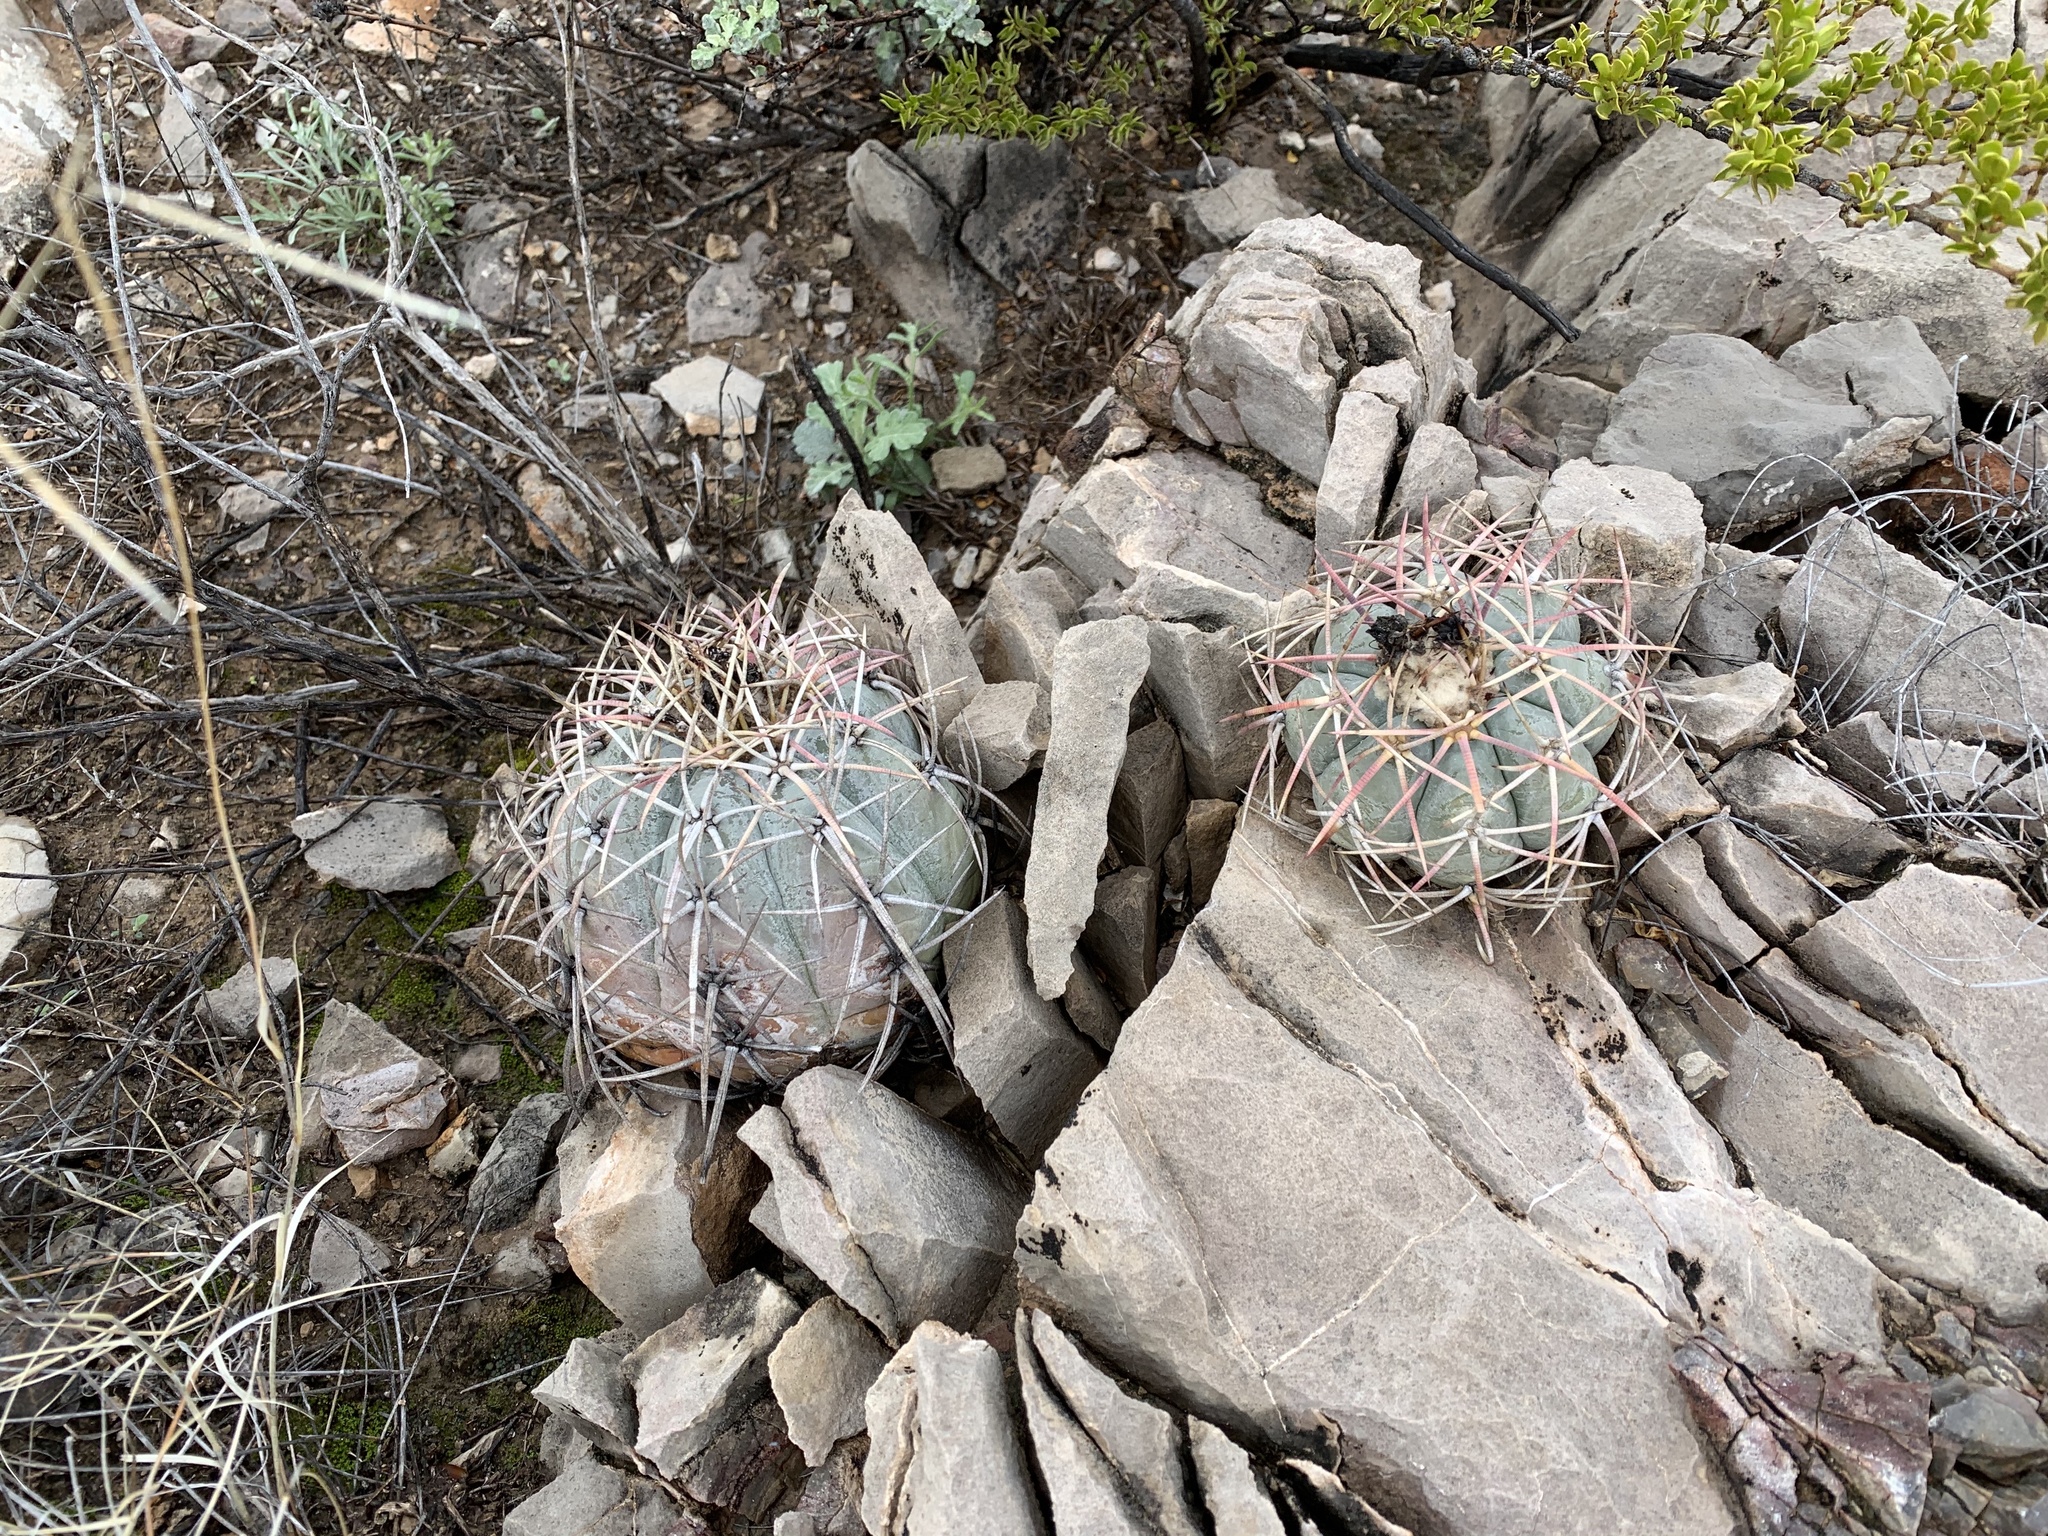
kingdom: Plantae
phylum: Tracheophyta
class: Magnoliopsida
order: Caryophyllales
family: Cactaceae
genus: Echinocactus
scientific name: Echinocactus horizonthalonius
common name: Devilshead
